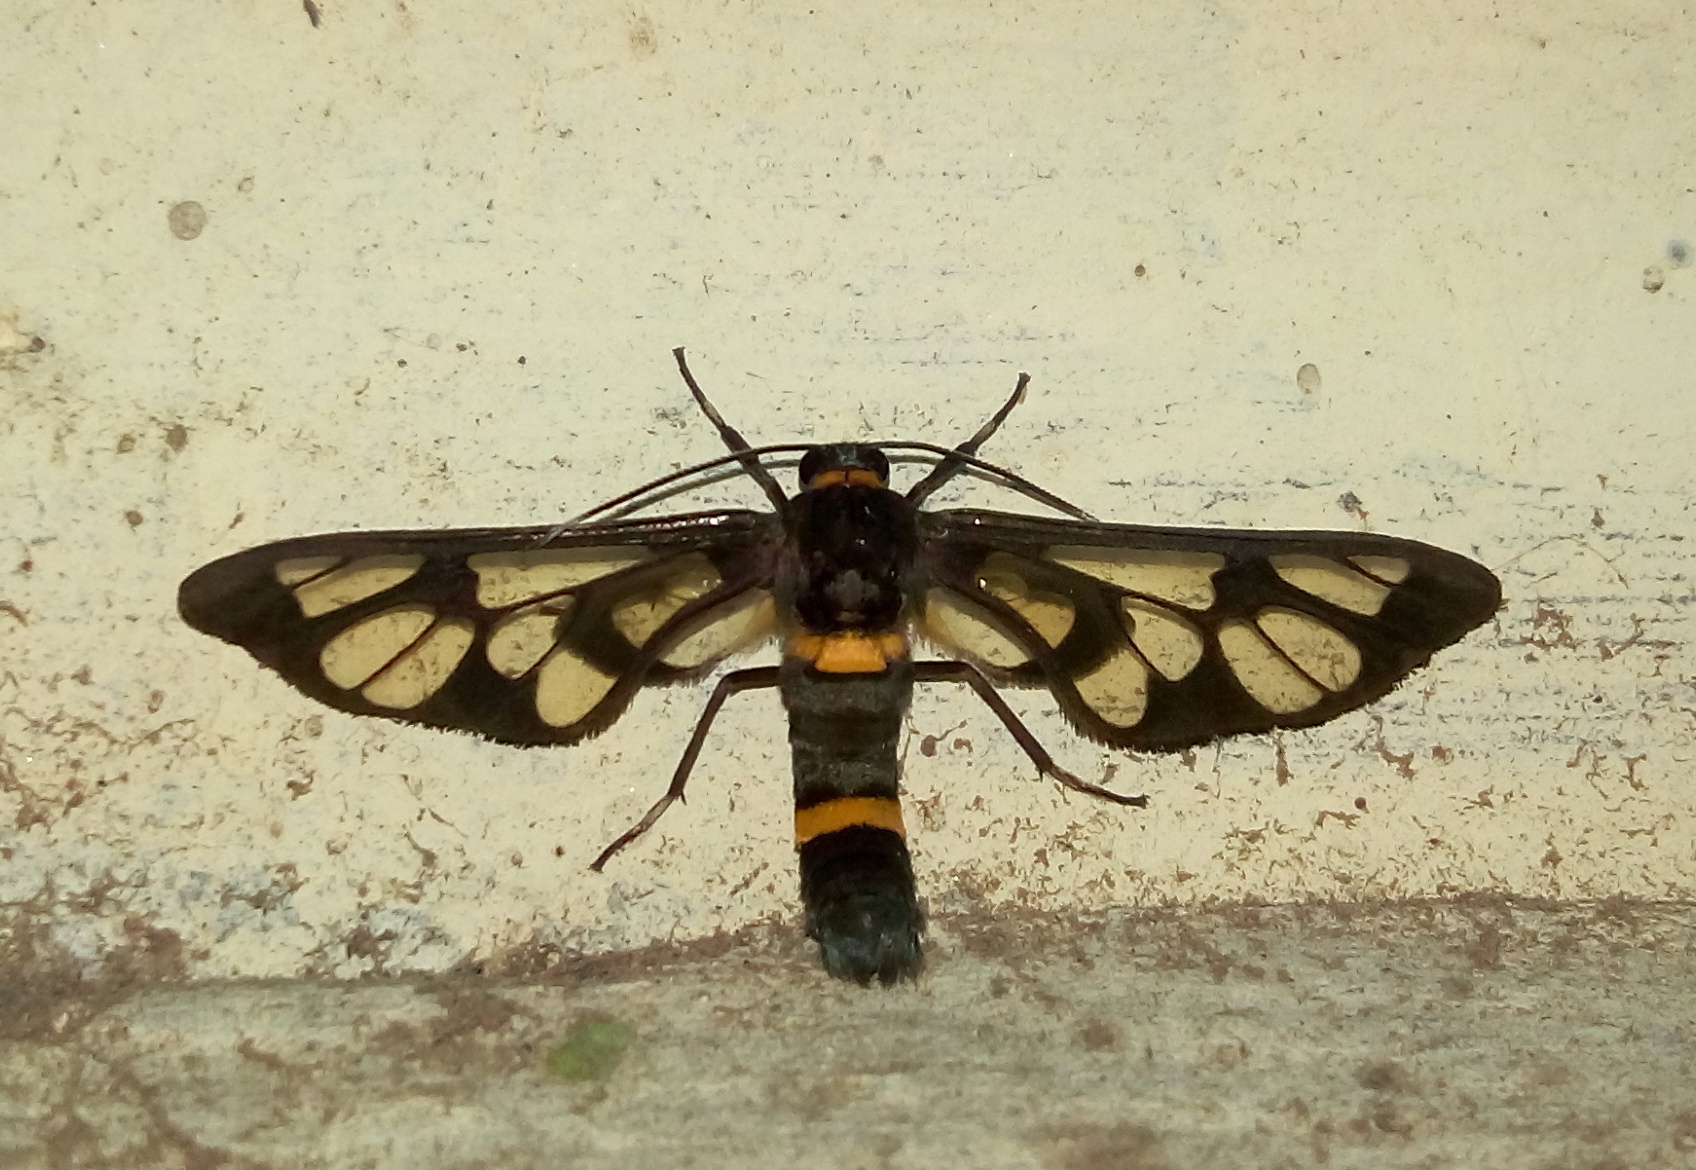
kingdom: Animalia
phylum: Arthropoda
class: Insecta
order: Lepidoptera
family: Erebidae
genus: Syntomoides
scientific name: Syntomoides imaon
